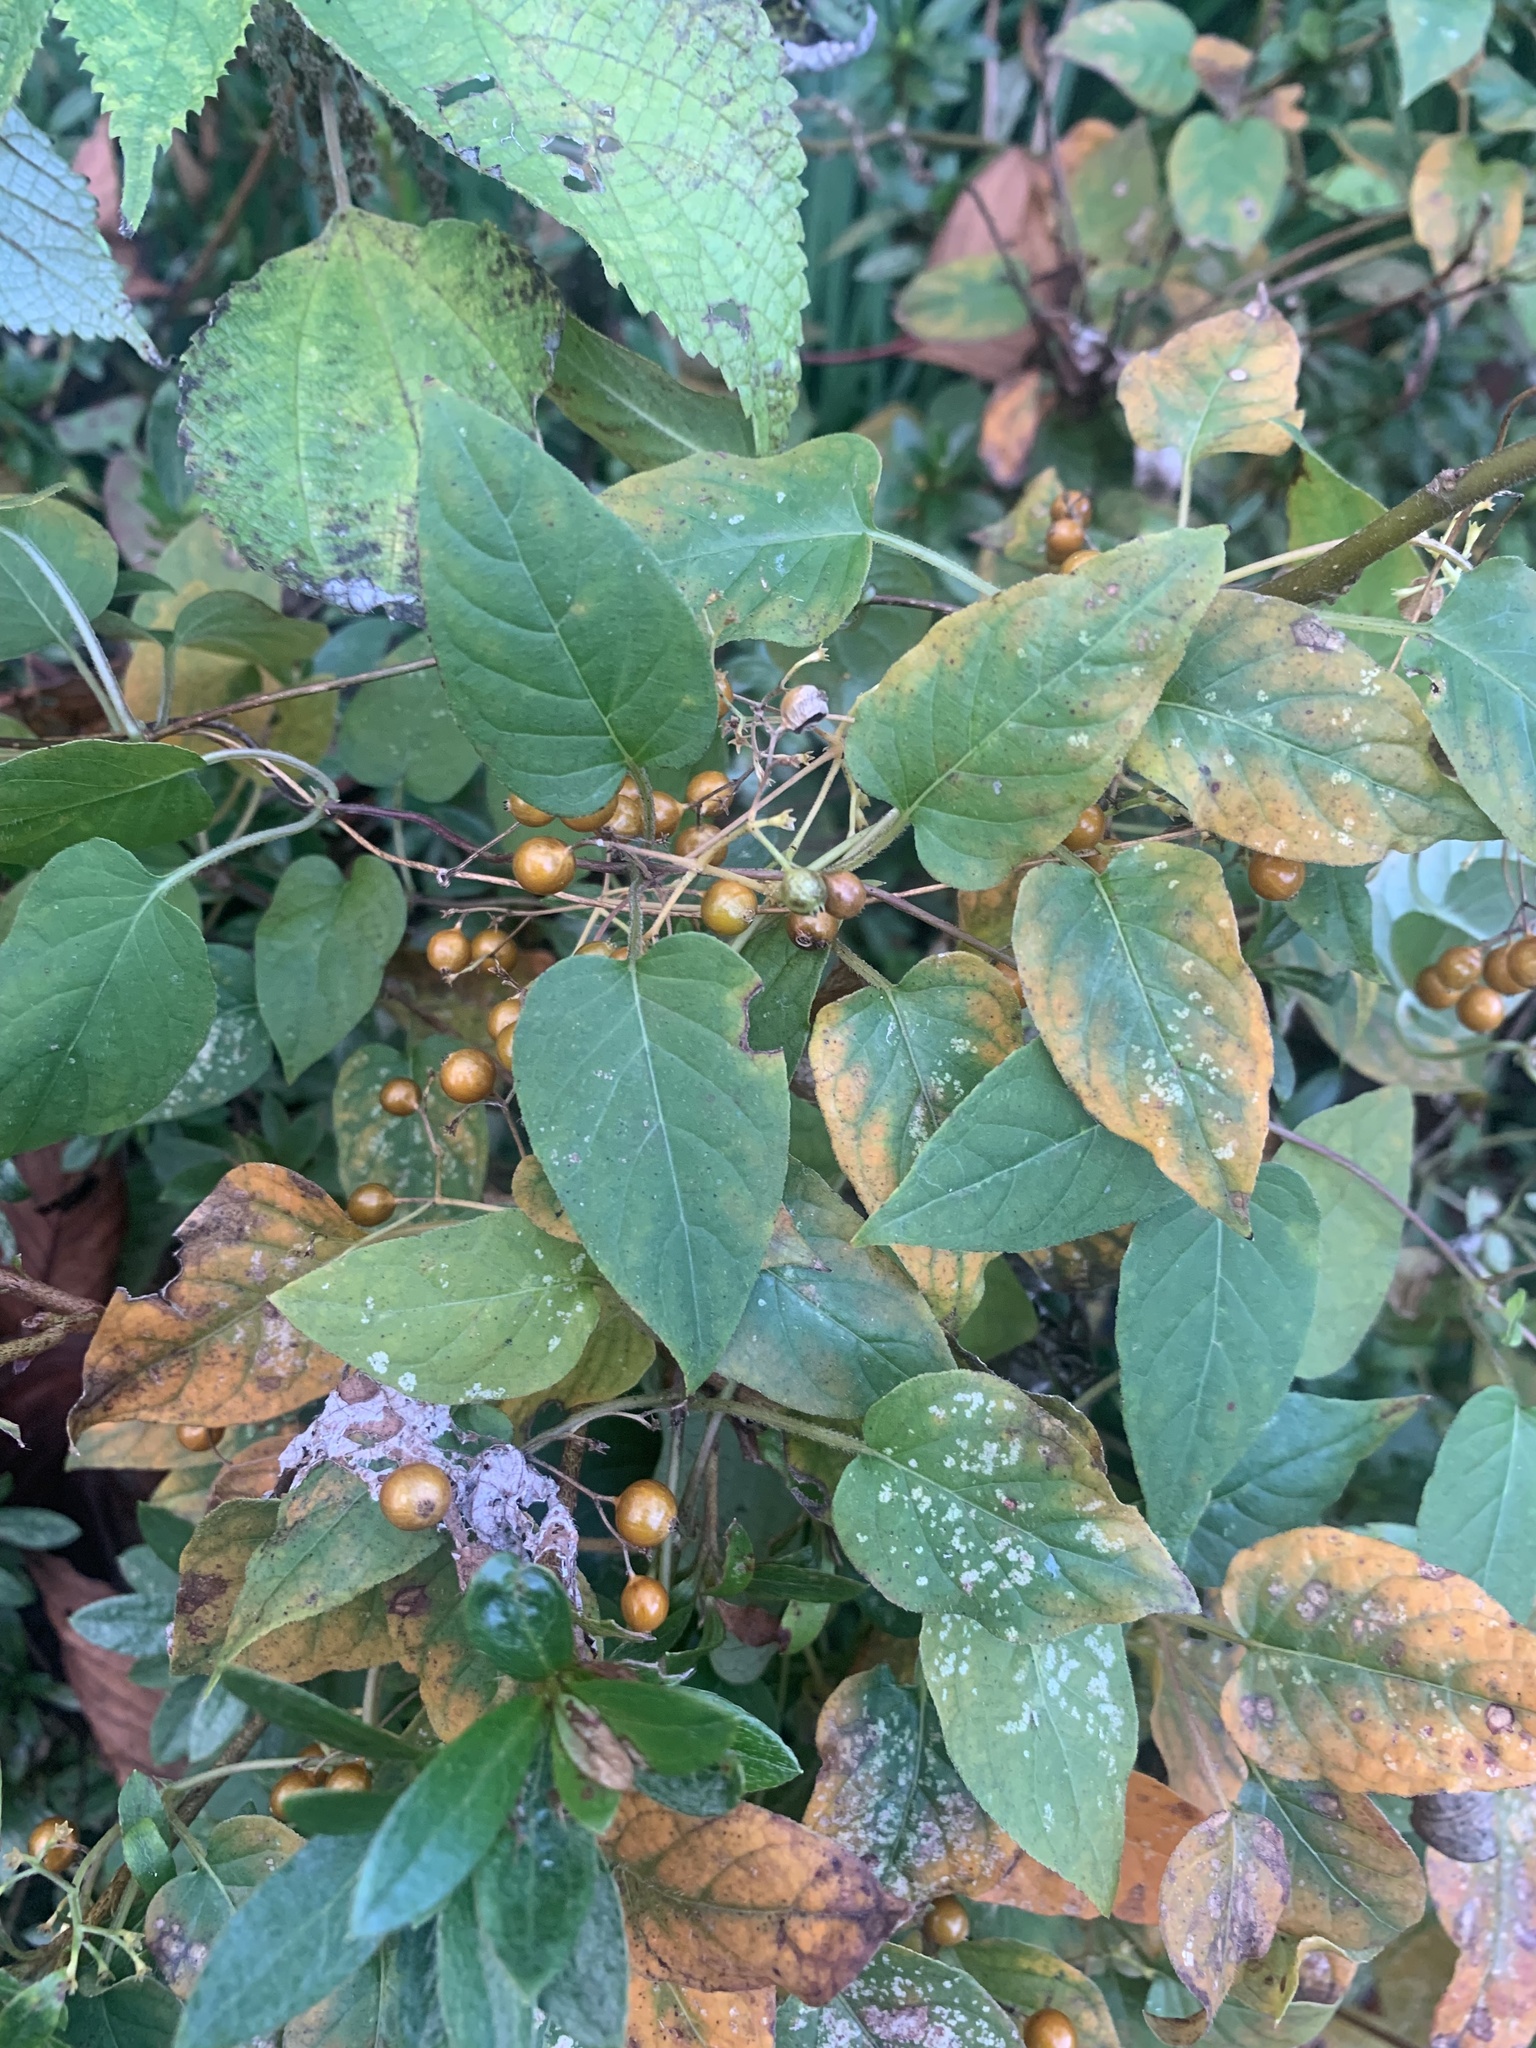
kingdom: Plantae
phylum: Tracheophyta
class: Magnoliopsida
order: Gentianales
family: Rubiaceae
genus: Paederia
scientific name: Paederia foetida
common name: Stinkvine
